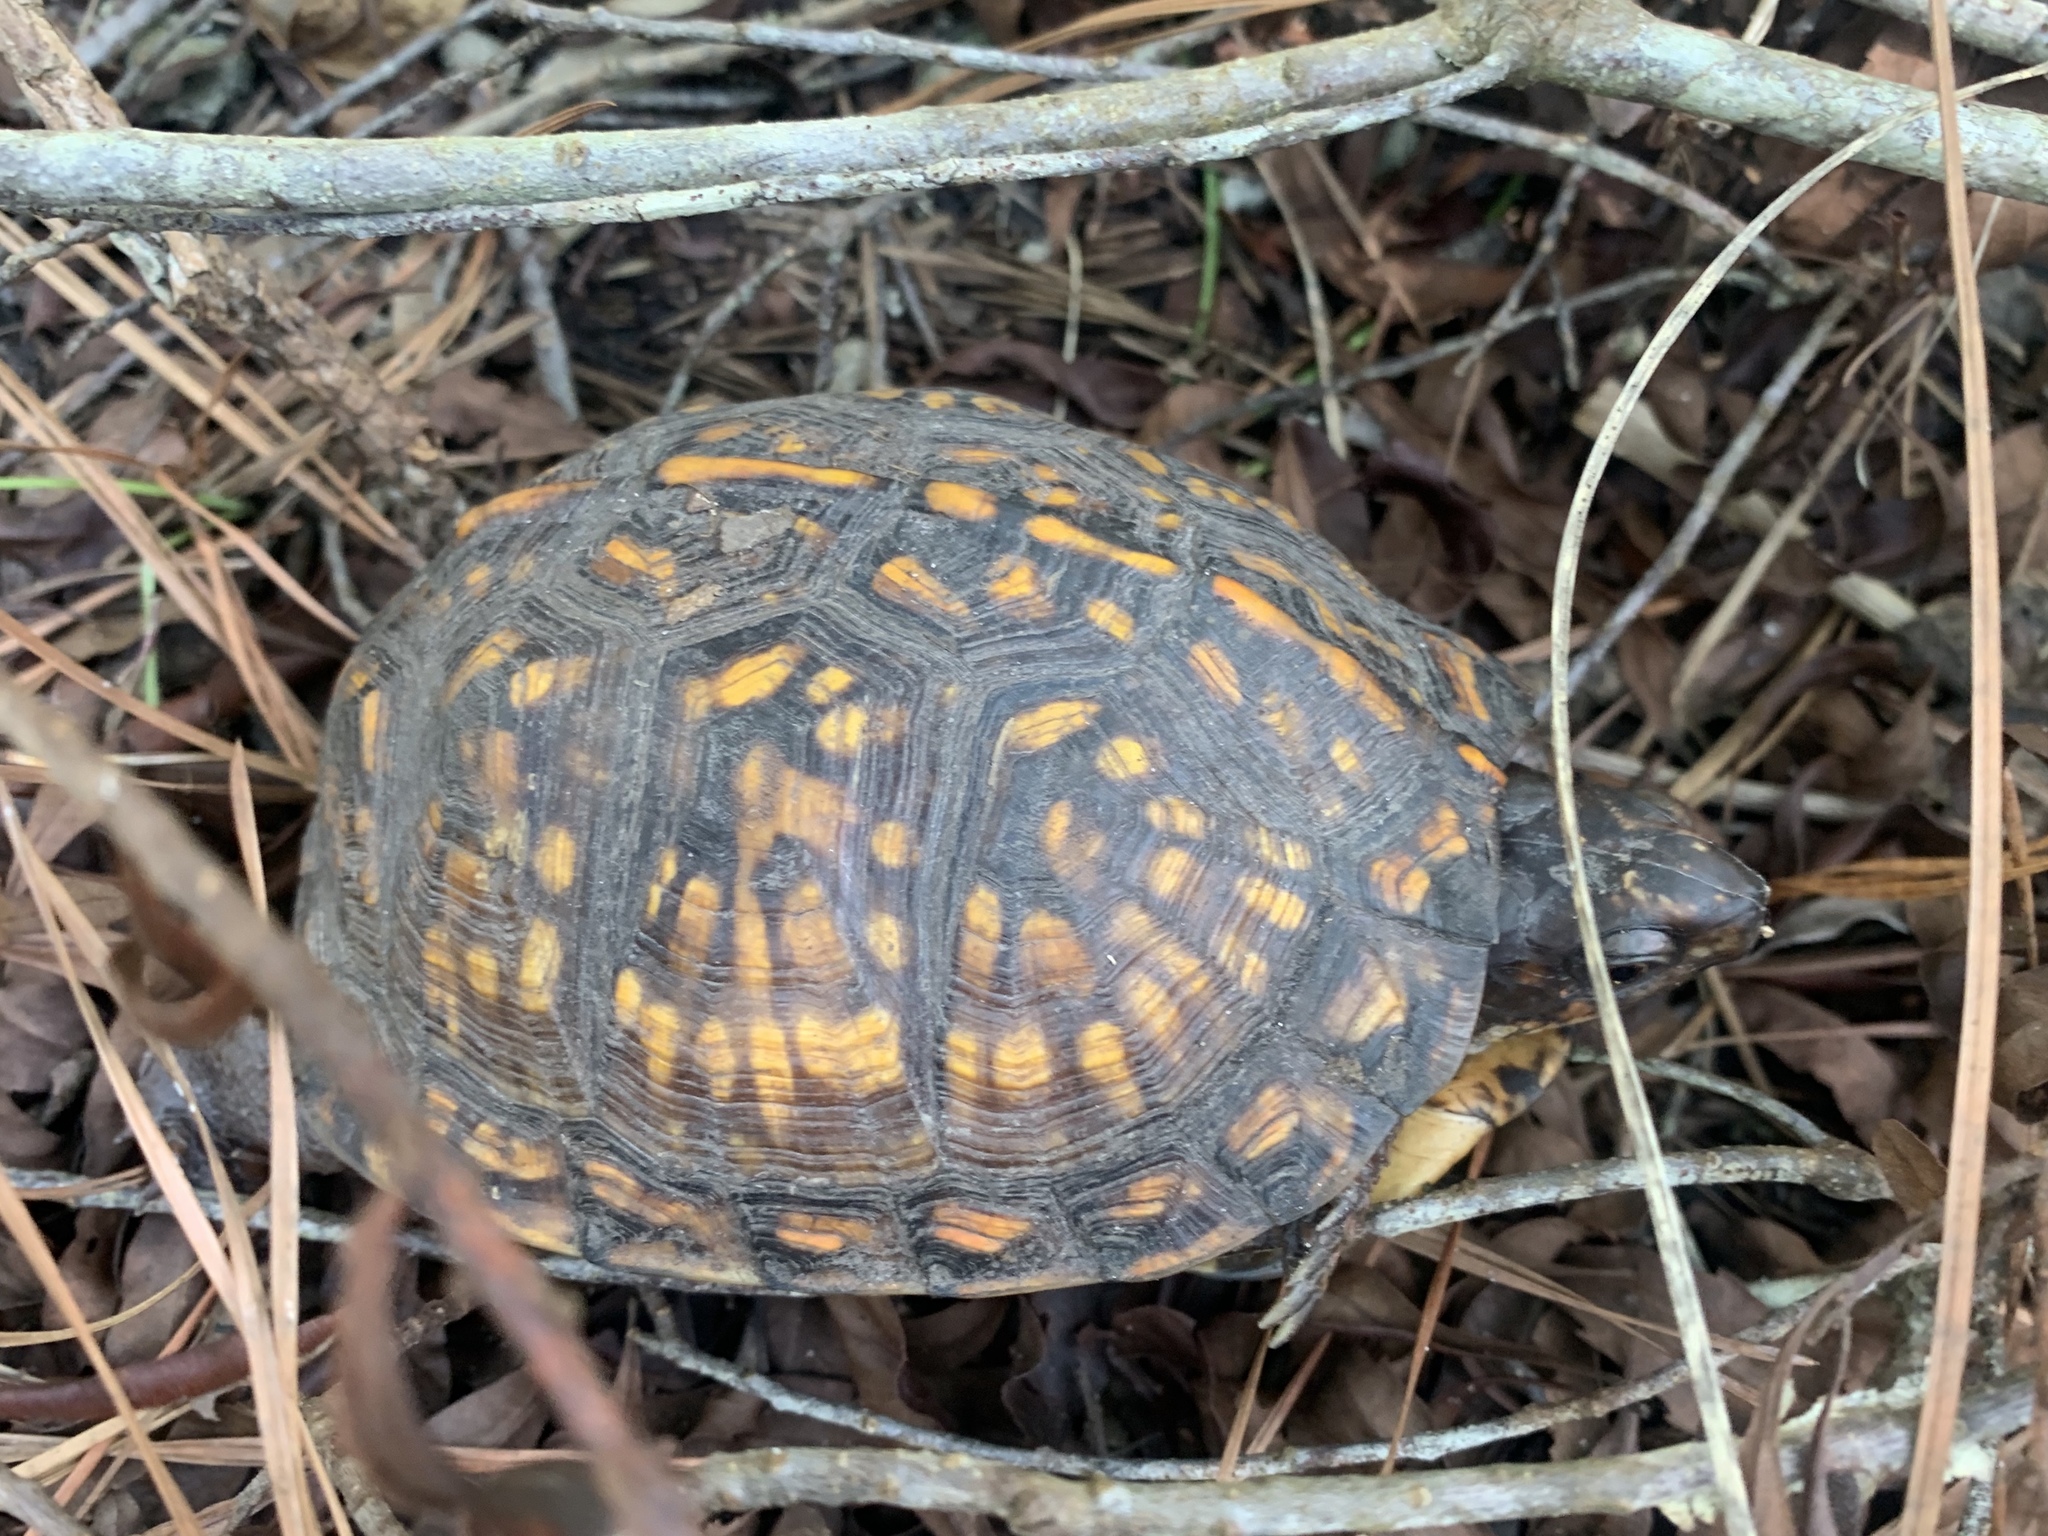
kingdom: Animalia
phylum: Chordata
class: Testudines
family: Emydidae
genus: Terrapene
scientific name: Terrapene carolina
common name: Common box turtle
